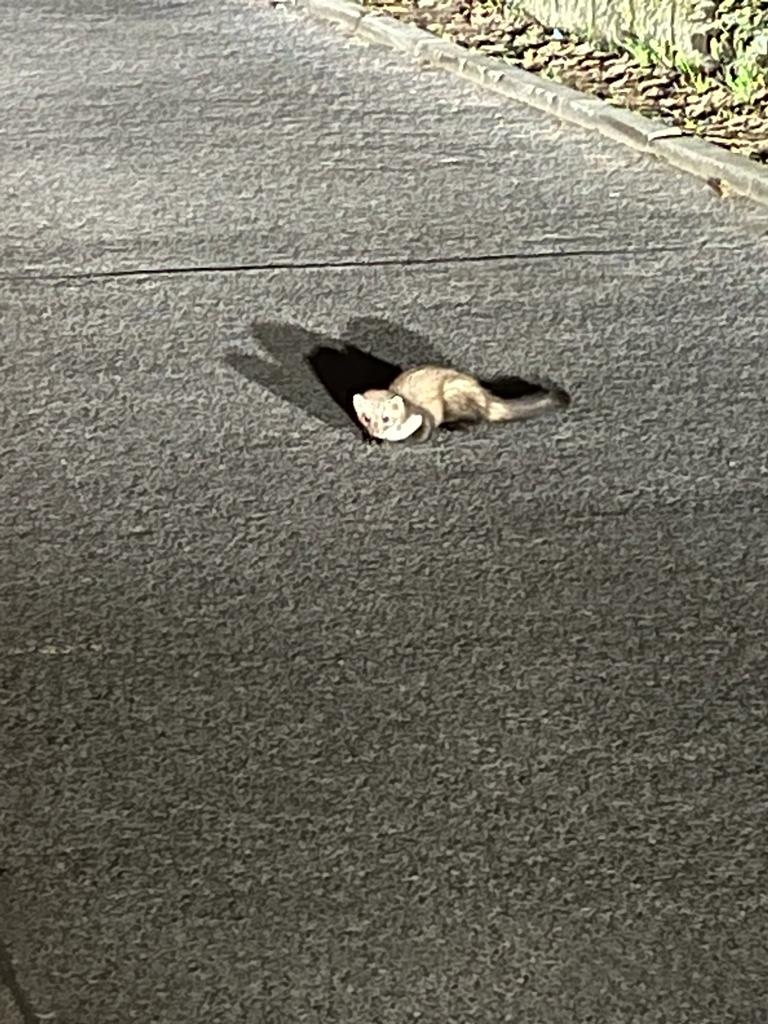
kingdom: Animalia
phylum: Chordata
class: Mammalia
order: Carnivora
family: Mustelidae
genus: Martes
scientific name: Martes foina
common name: Beech marten
